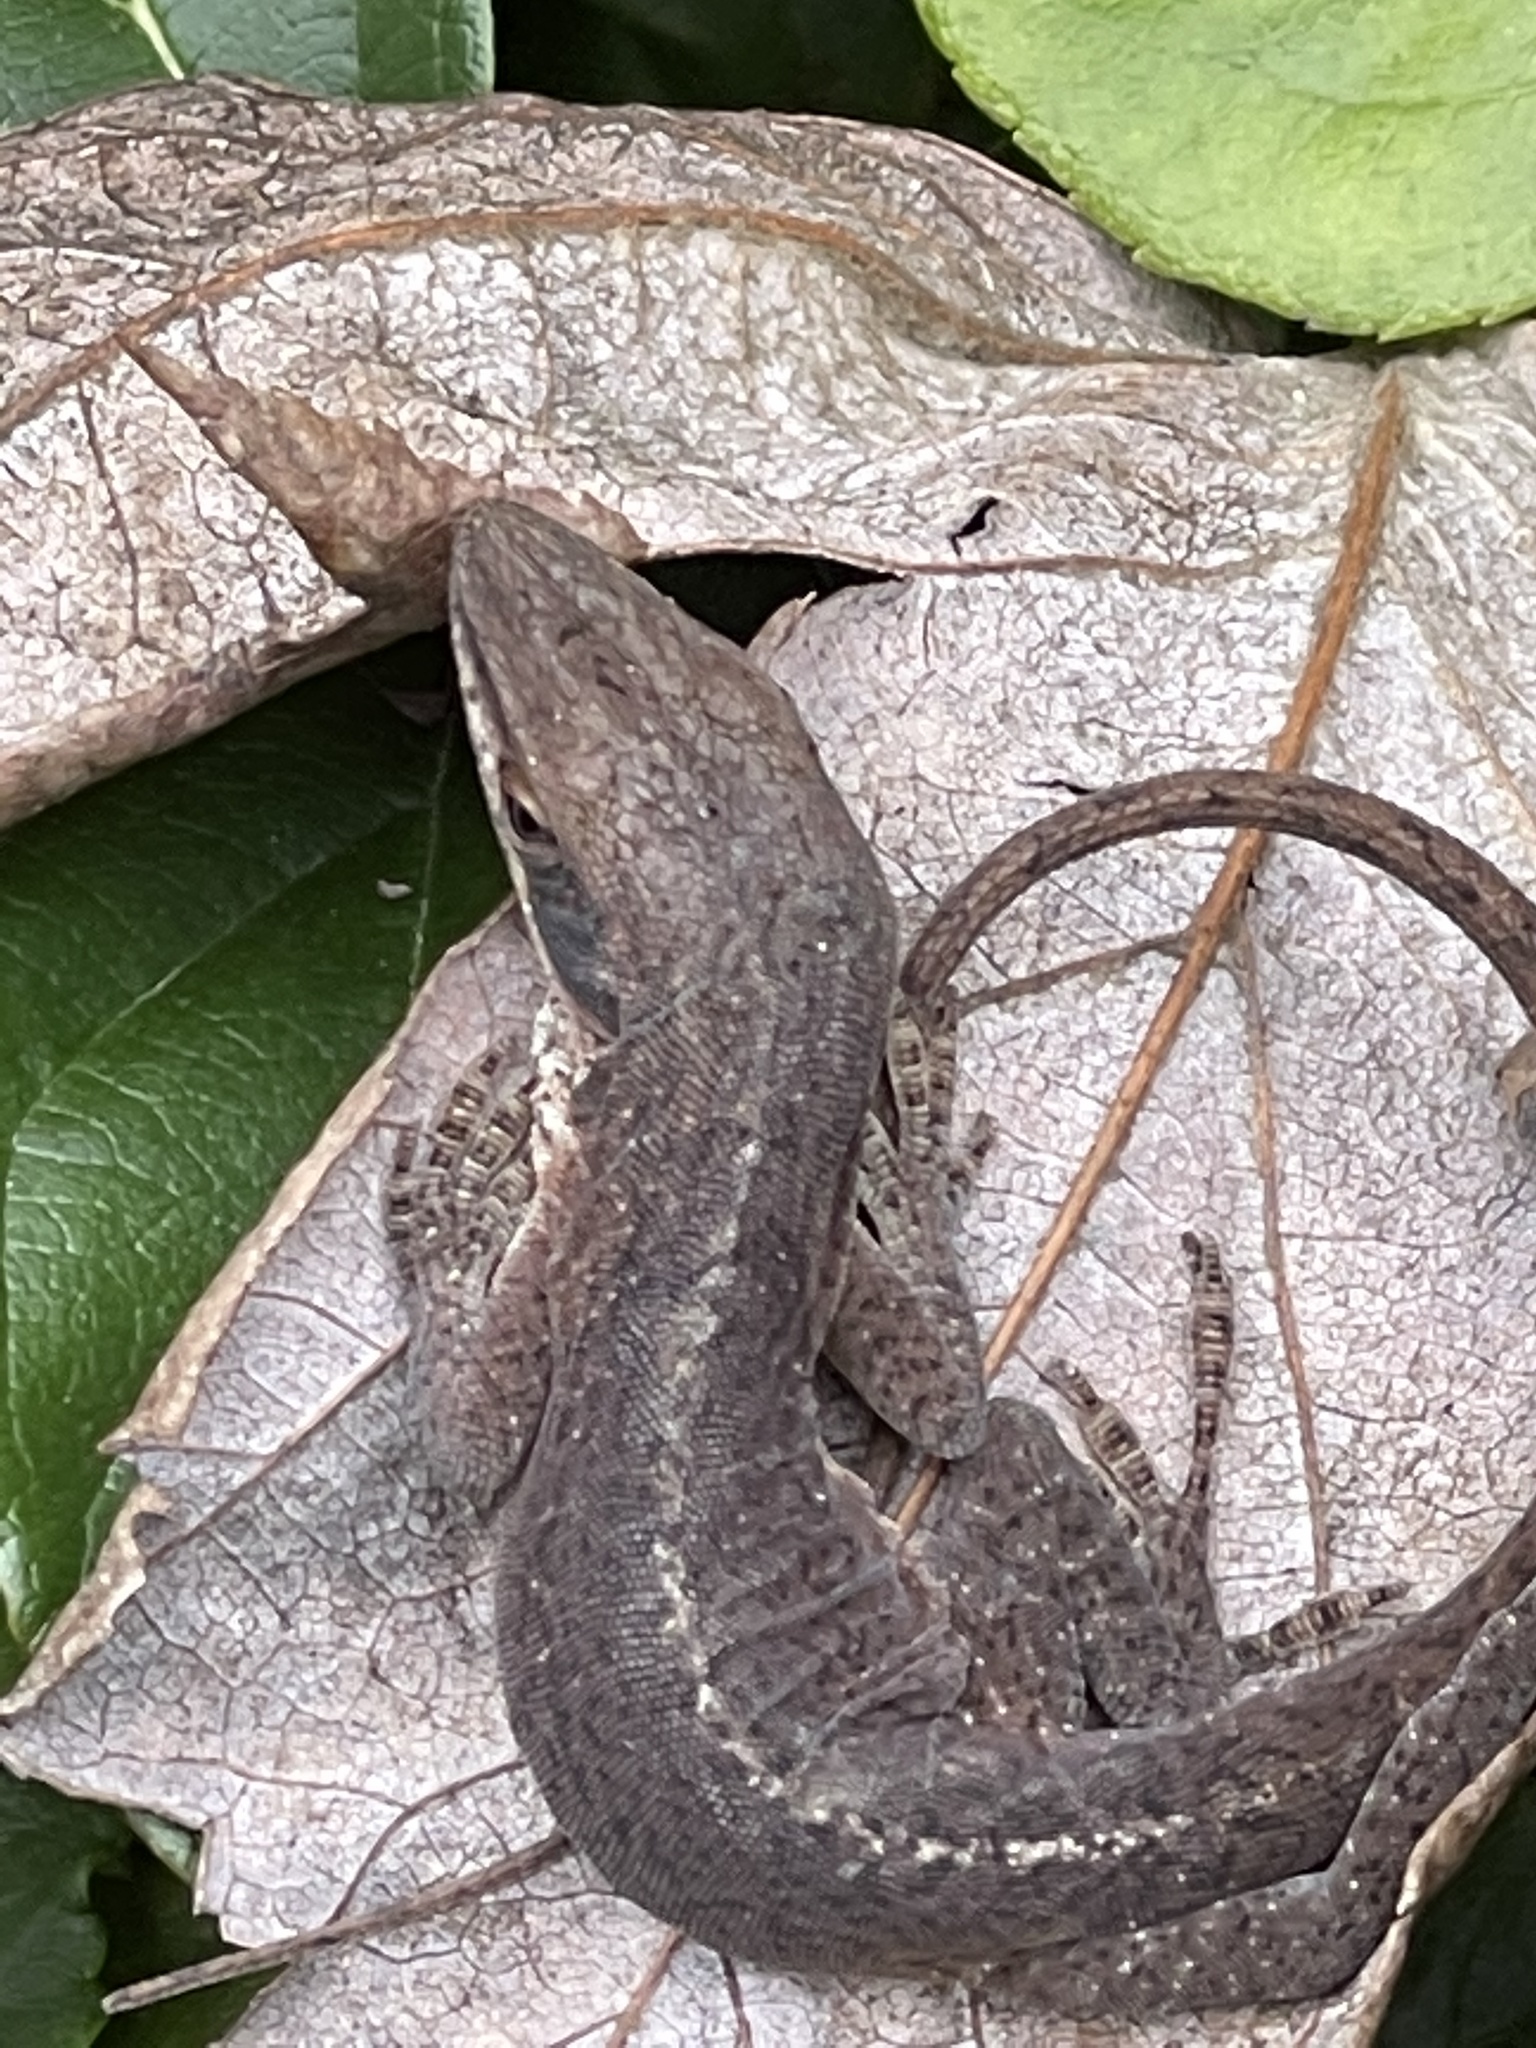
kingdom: Animalia
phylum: Chordata
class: Squamata
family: Dactyloidae
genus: Anolis
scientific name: Anolis carolinensis
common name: Green anole
